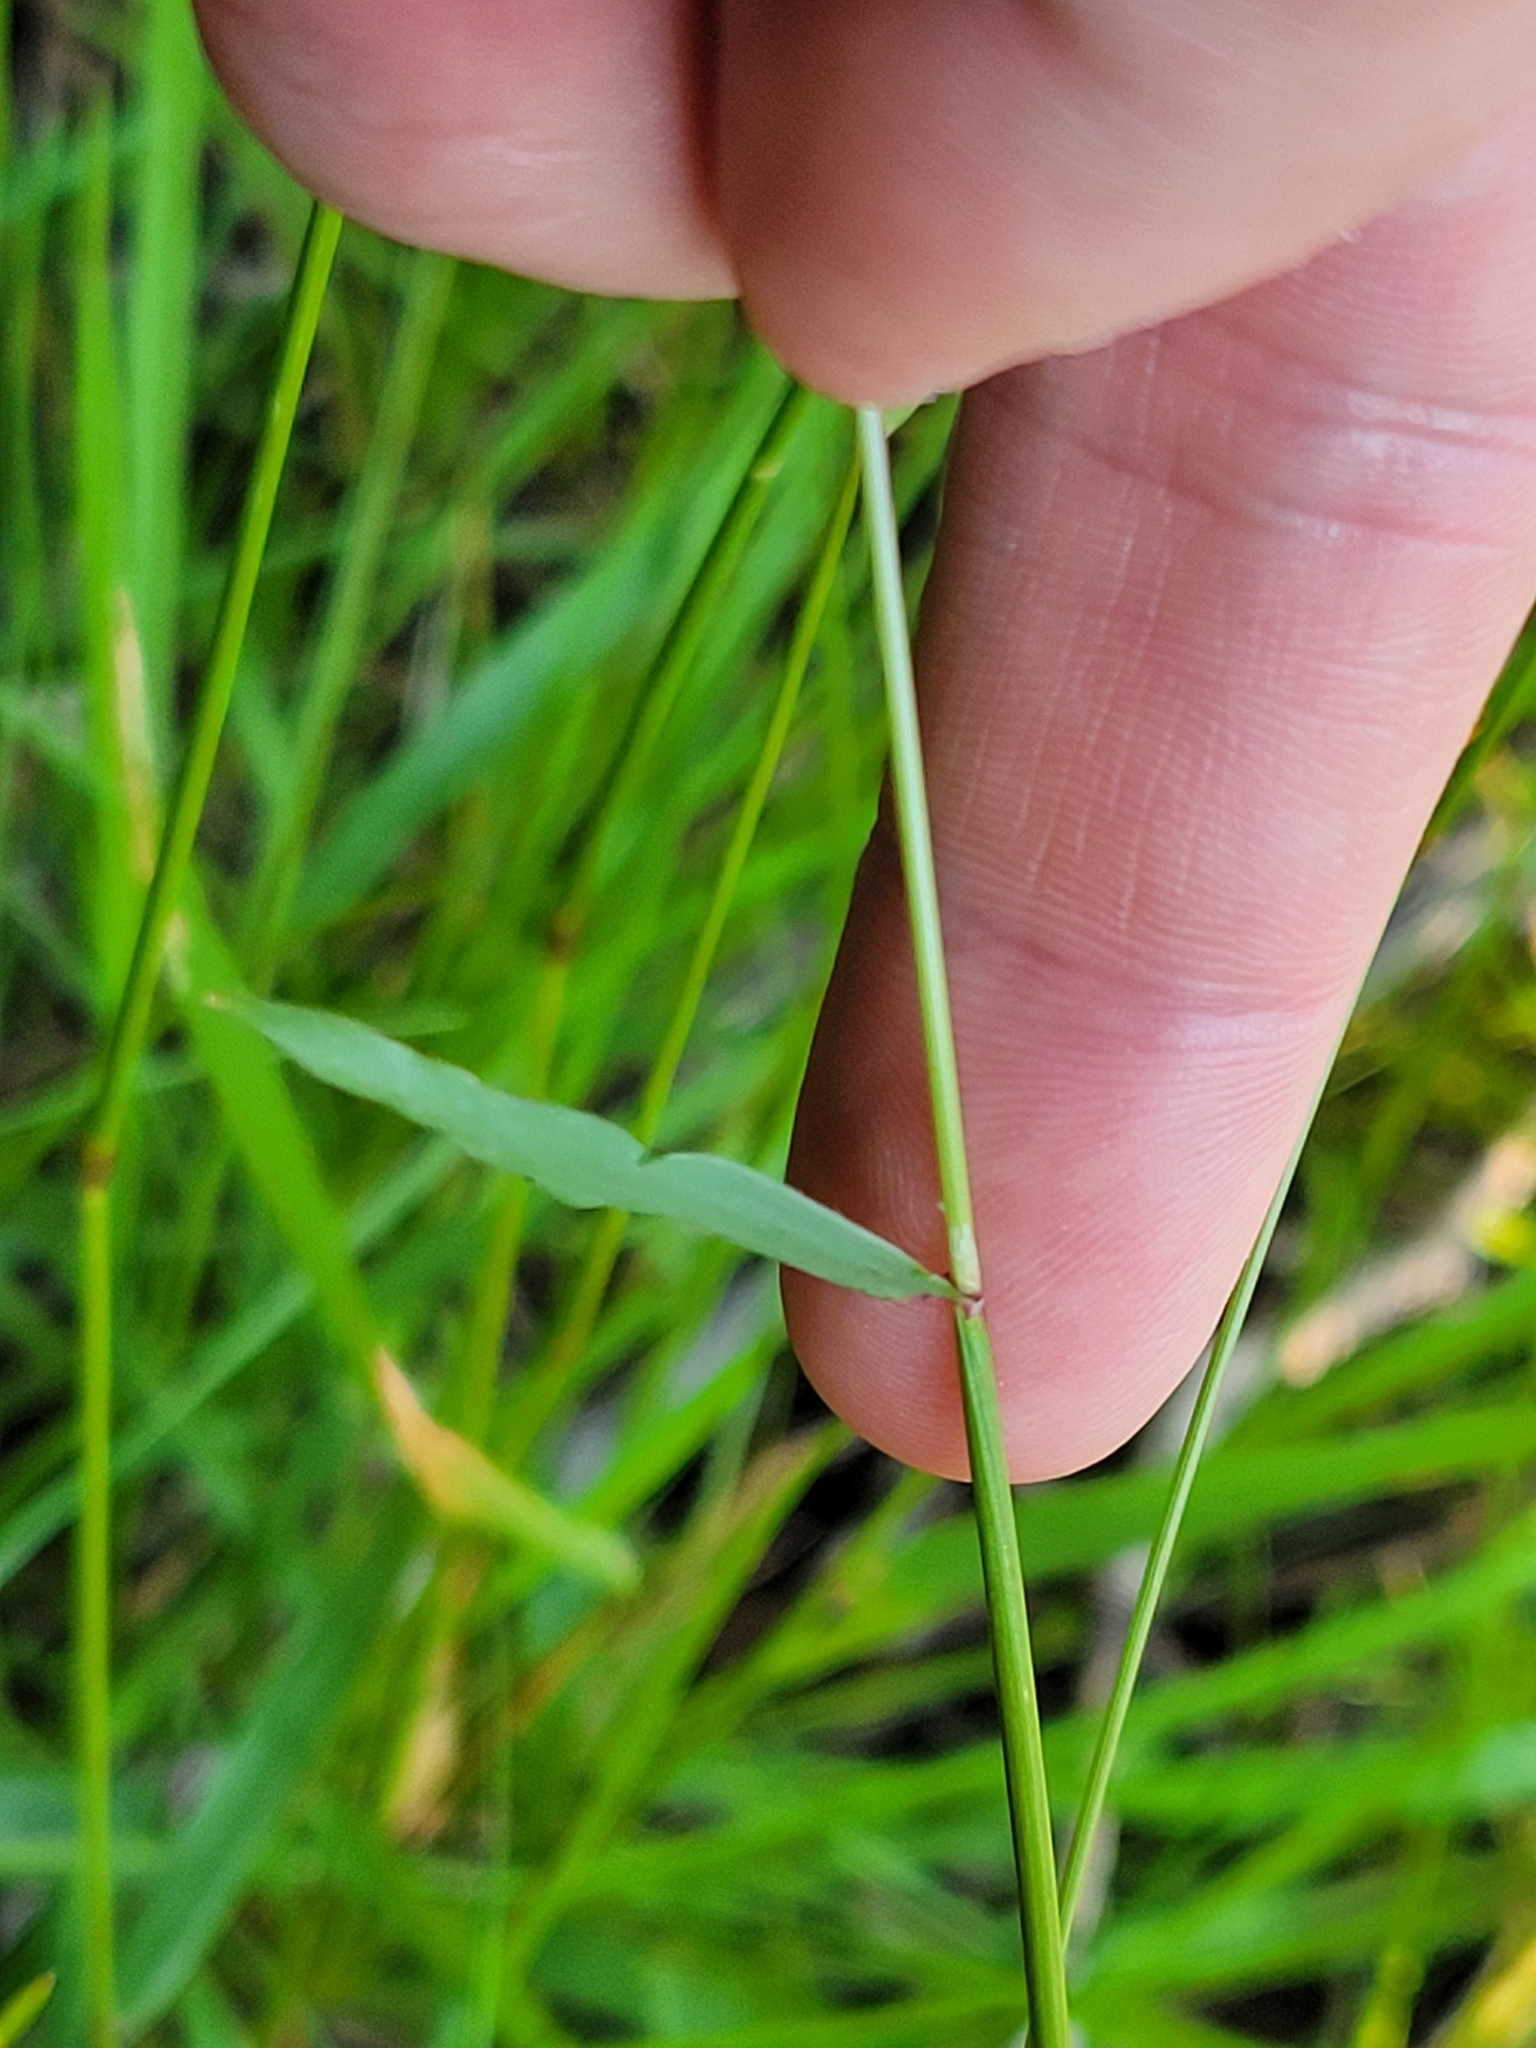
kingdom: Plantae
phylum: Tracheophyta
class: Liliopsida
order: Poales
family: Poaceae
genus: Anthoxanthum
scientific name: Anthoxanthum odoratum
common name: Sweet vernalgrass
